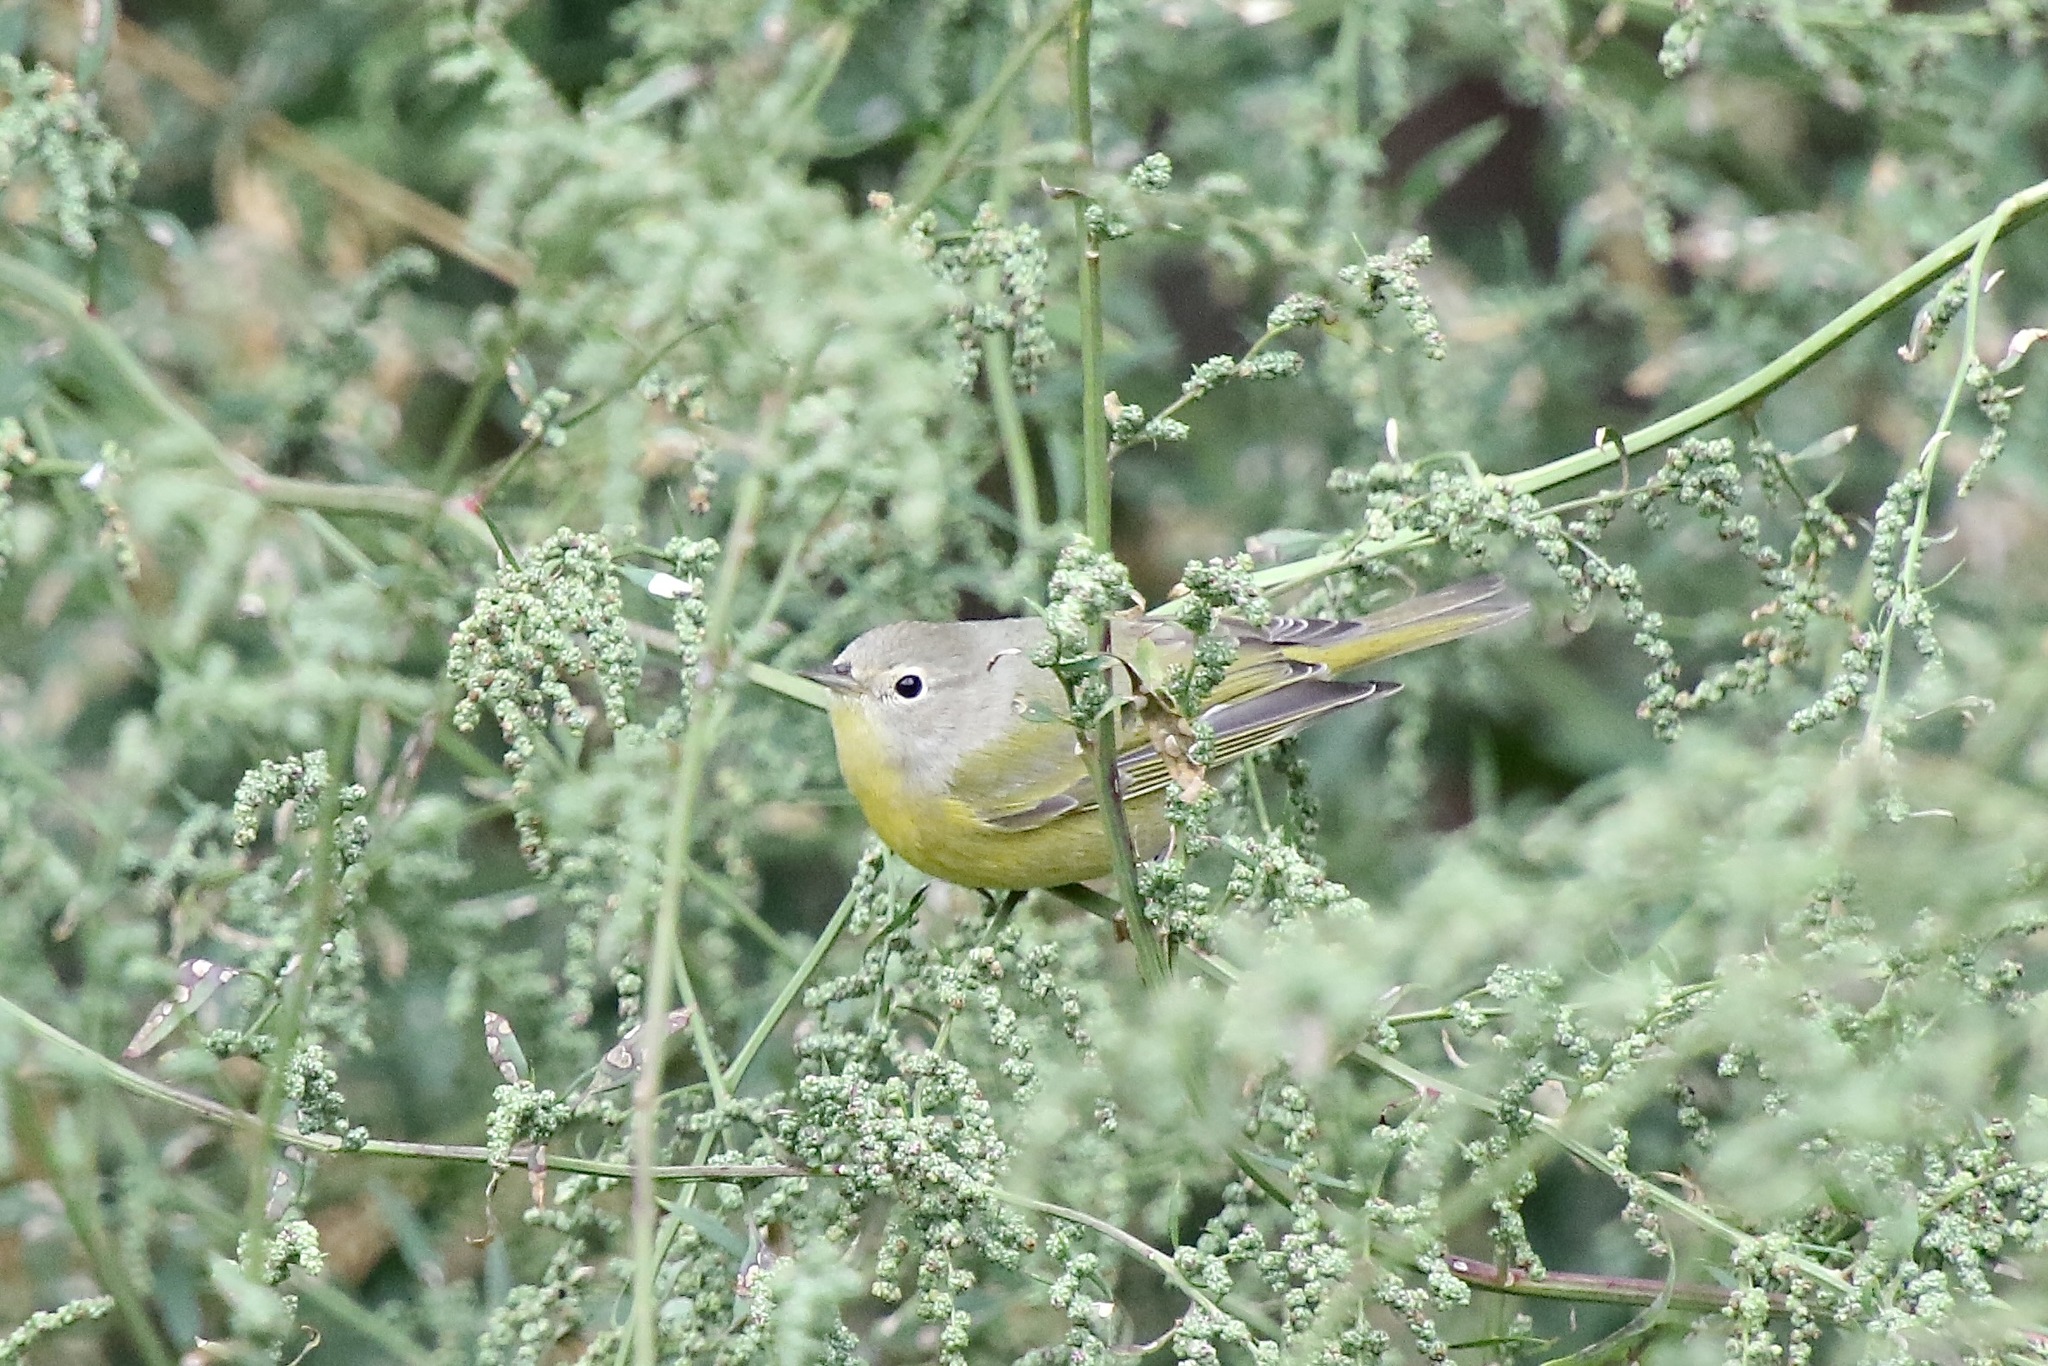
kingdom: Animalia
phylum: Chordata
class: Aves
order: Passeriformes
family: Parulidae
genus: Leiothlypis
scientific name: Leiothlypis ruficapilla
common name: Nashville warbler
